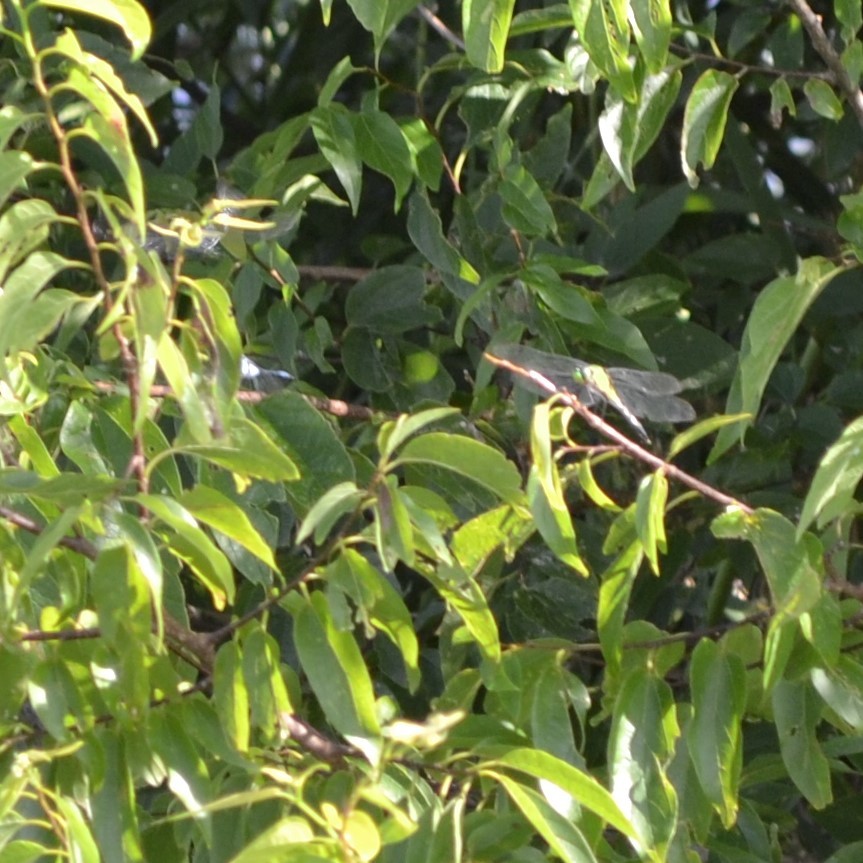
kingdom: Animalia
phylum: Arthropoda
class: Insecta
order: Odonata
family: Libellulidae
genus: Erythemis
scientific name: Erythemis simplicicollis
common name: Eastern pondhawk
